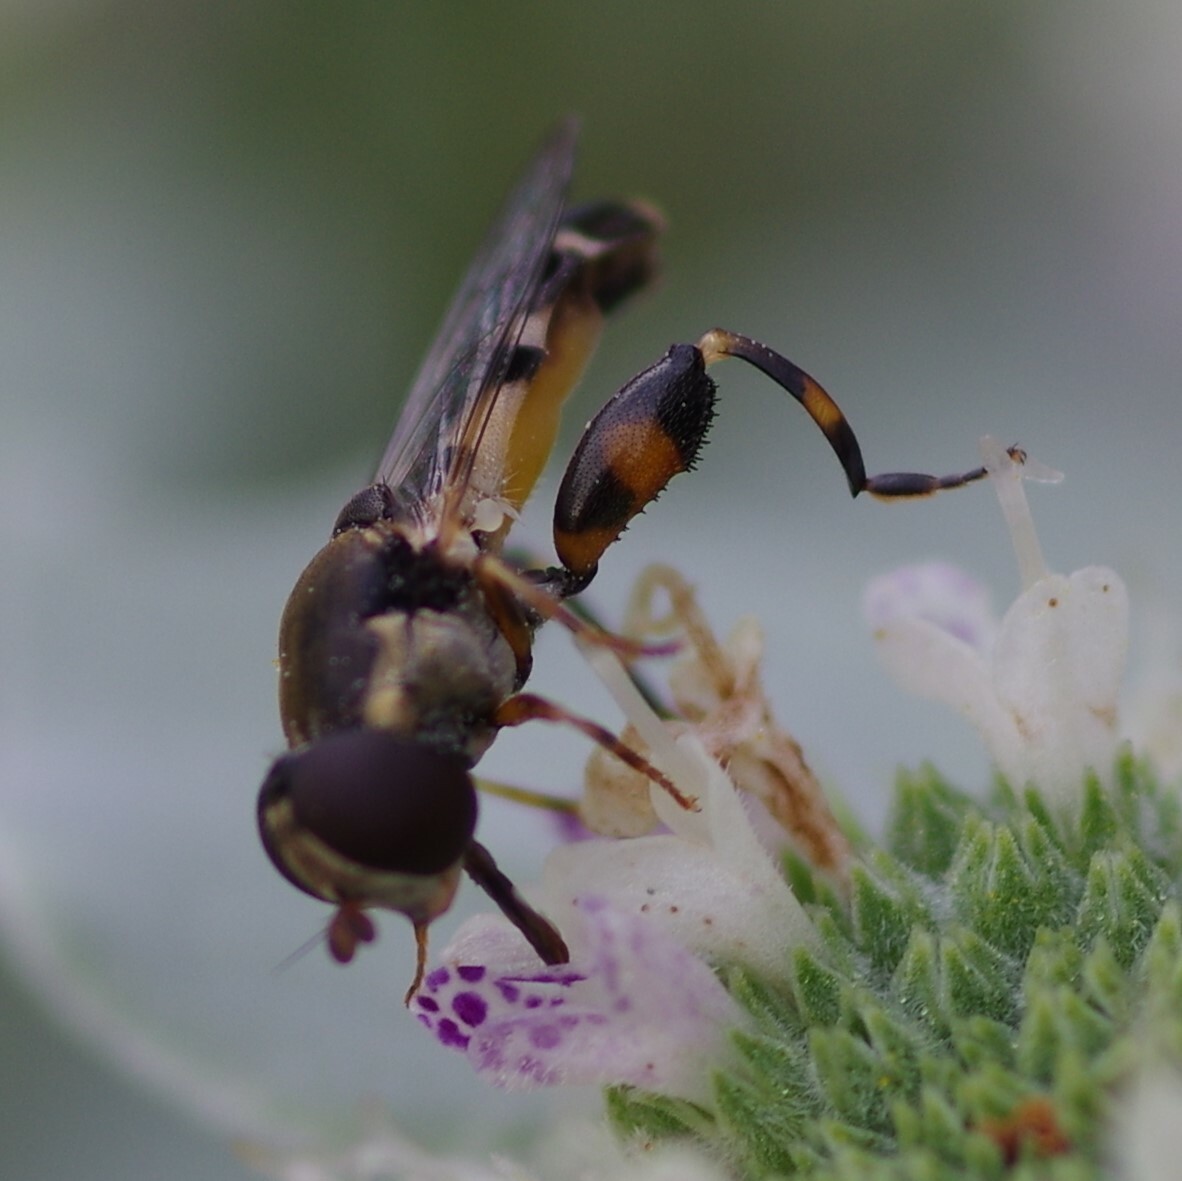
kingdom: Animalia
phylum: Arthropoda
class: Insecta
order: Diptera
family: Syrphidae
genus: Syritta
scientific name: Syritta pipiens
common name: Hover fly
